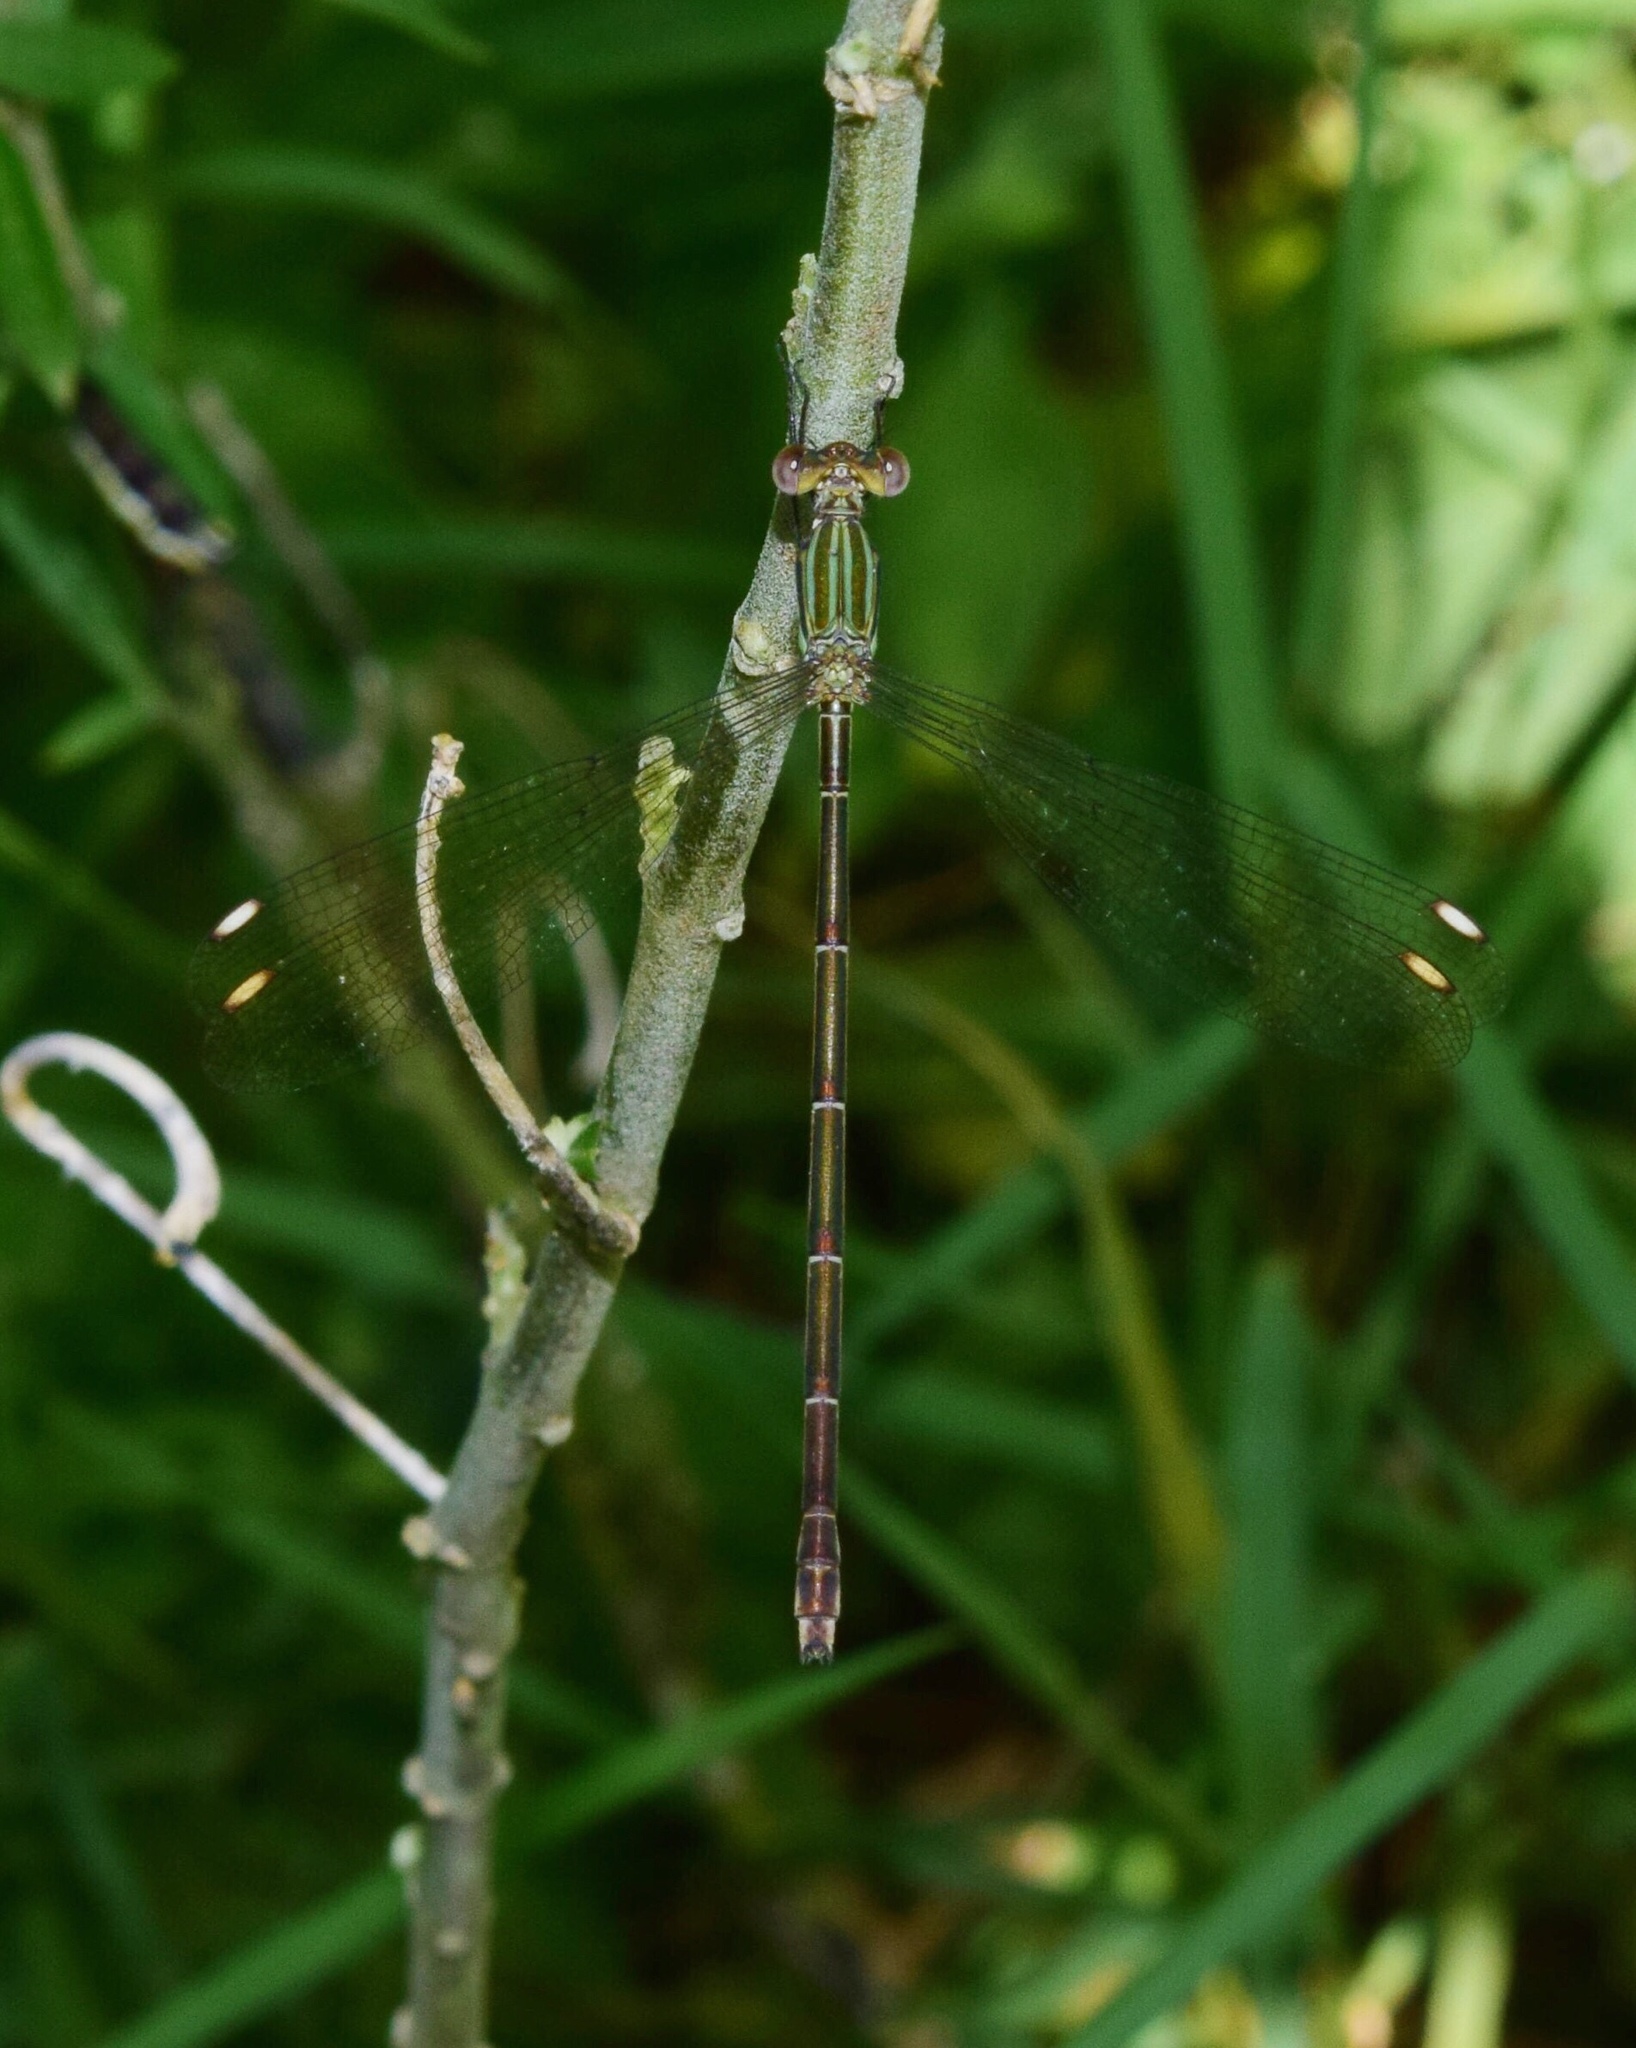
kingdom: Animalia
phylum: Arthropoda
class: Insecta
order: Odonata
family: Lestidae
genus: Lestes
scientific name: Lestes virgatus
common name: Smoky spreadwing
